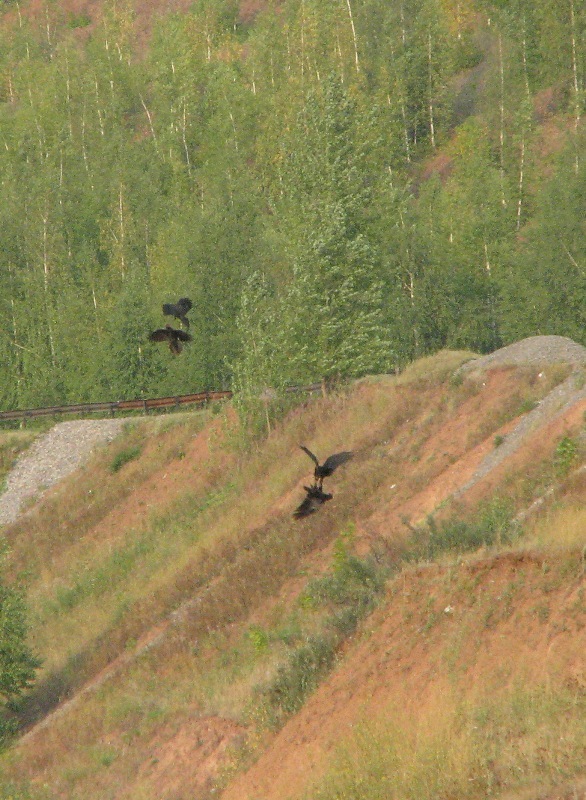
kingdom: Animalia
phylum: Chordata
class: Aves
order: Passeriformes
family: Corvidae
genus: Corvus
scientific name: Corvus corax
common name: Common raven
